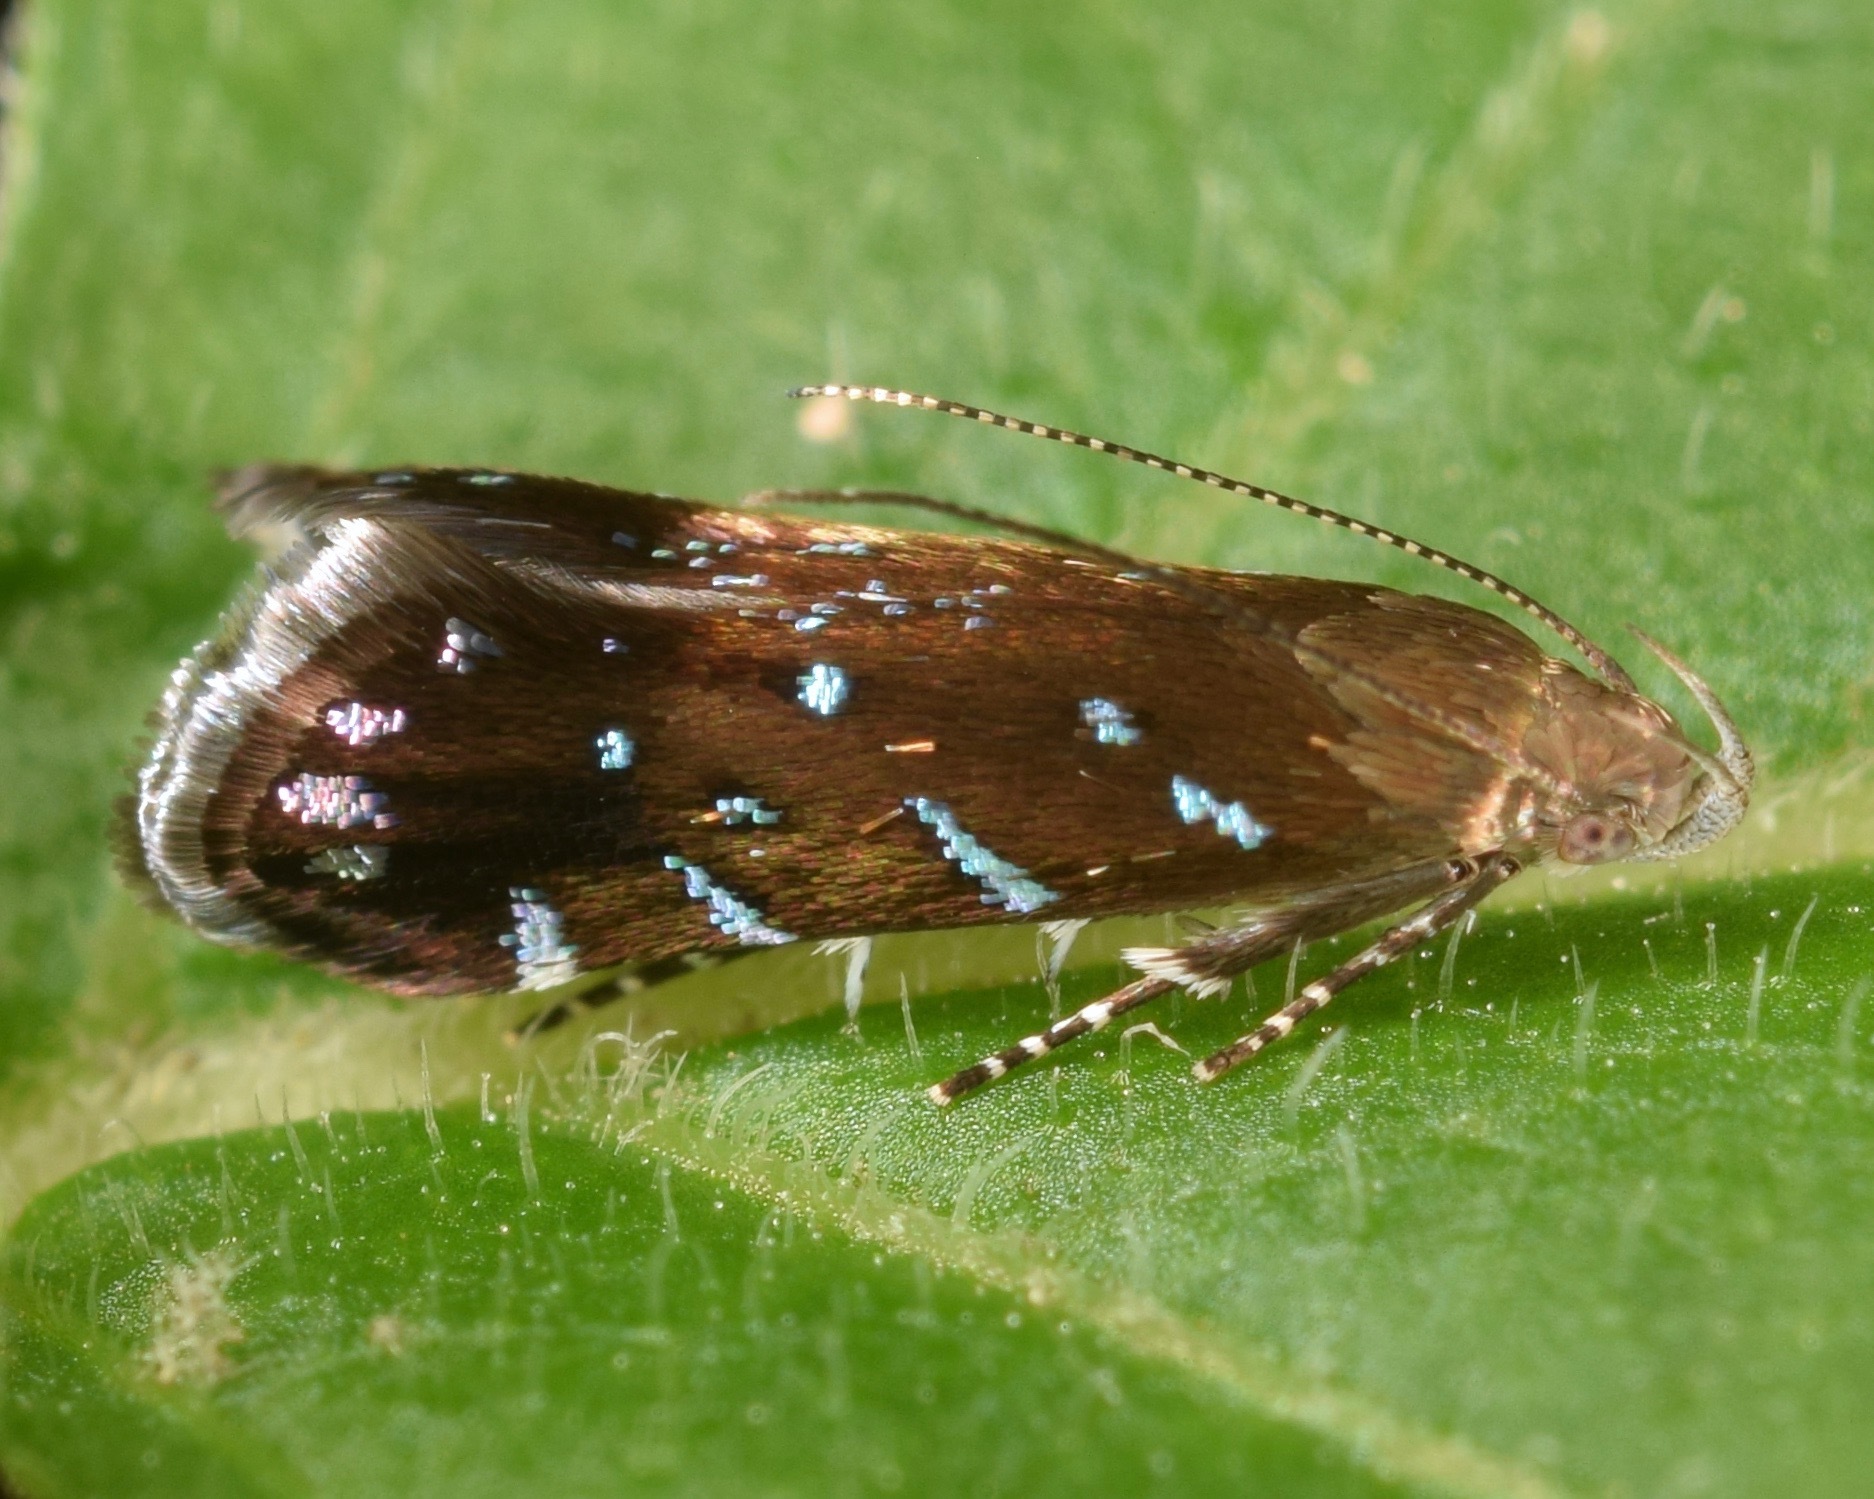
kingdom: Animalia
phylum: Arthropoda
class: Insecta
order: Lepidoptera
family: Gelechiidae
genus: Strobisia
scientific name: Strobisia iridipennella
